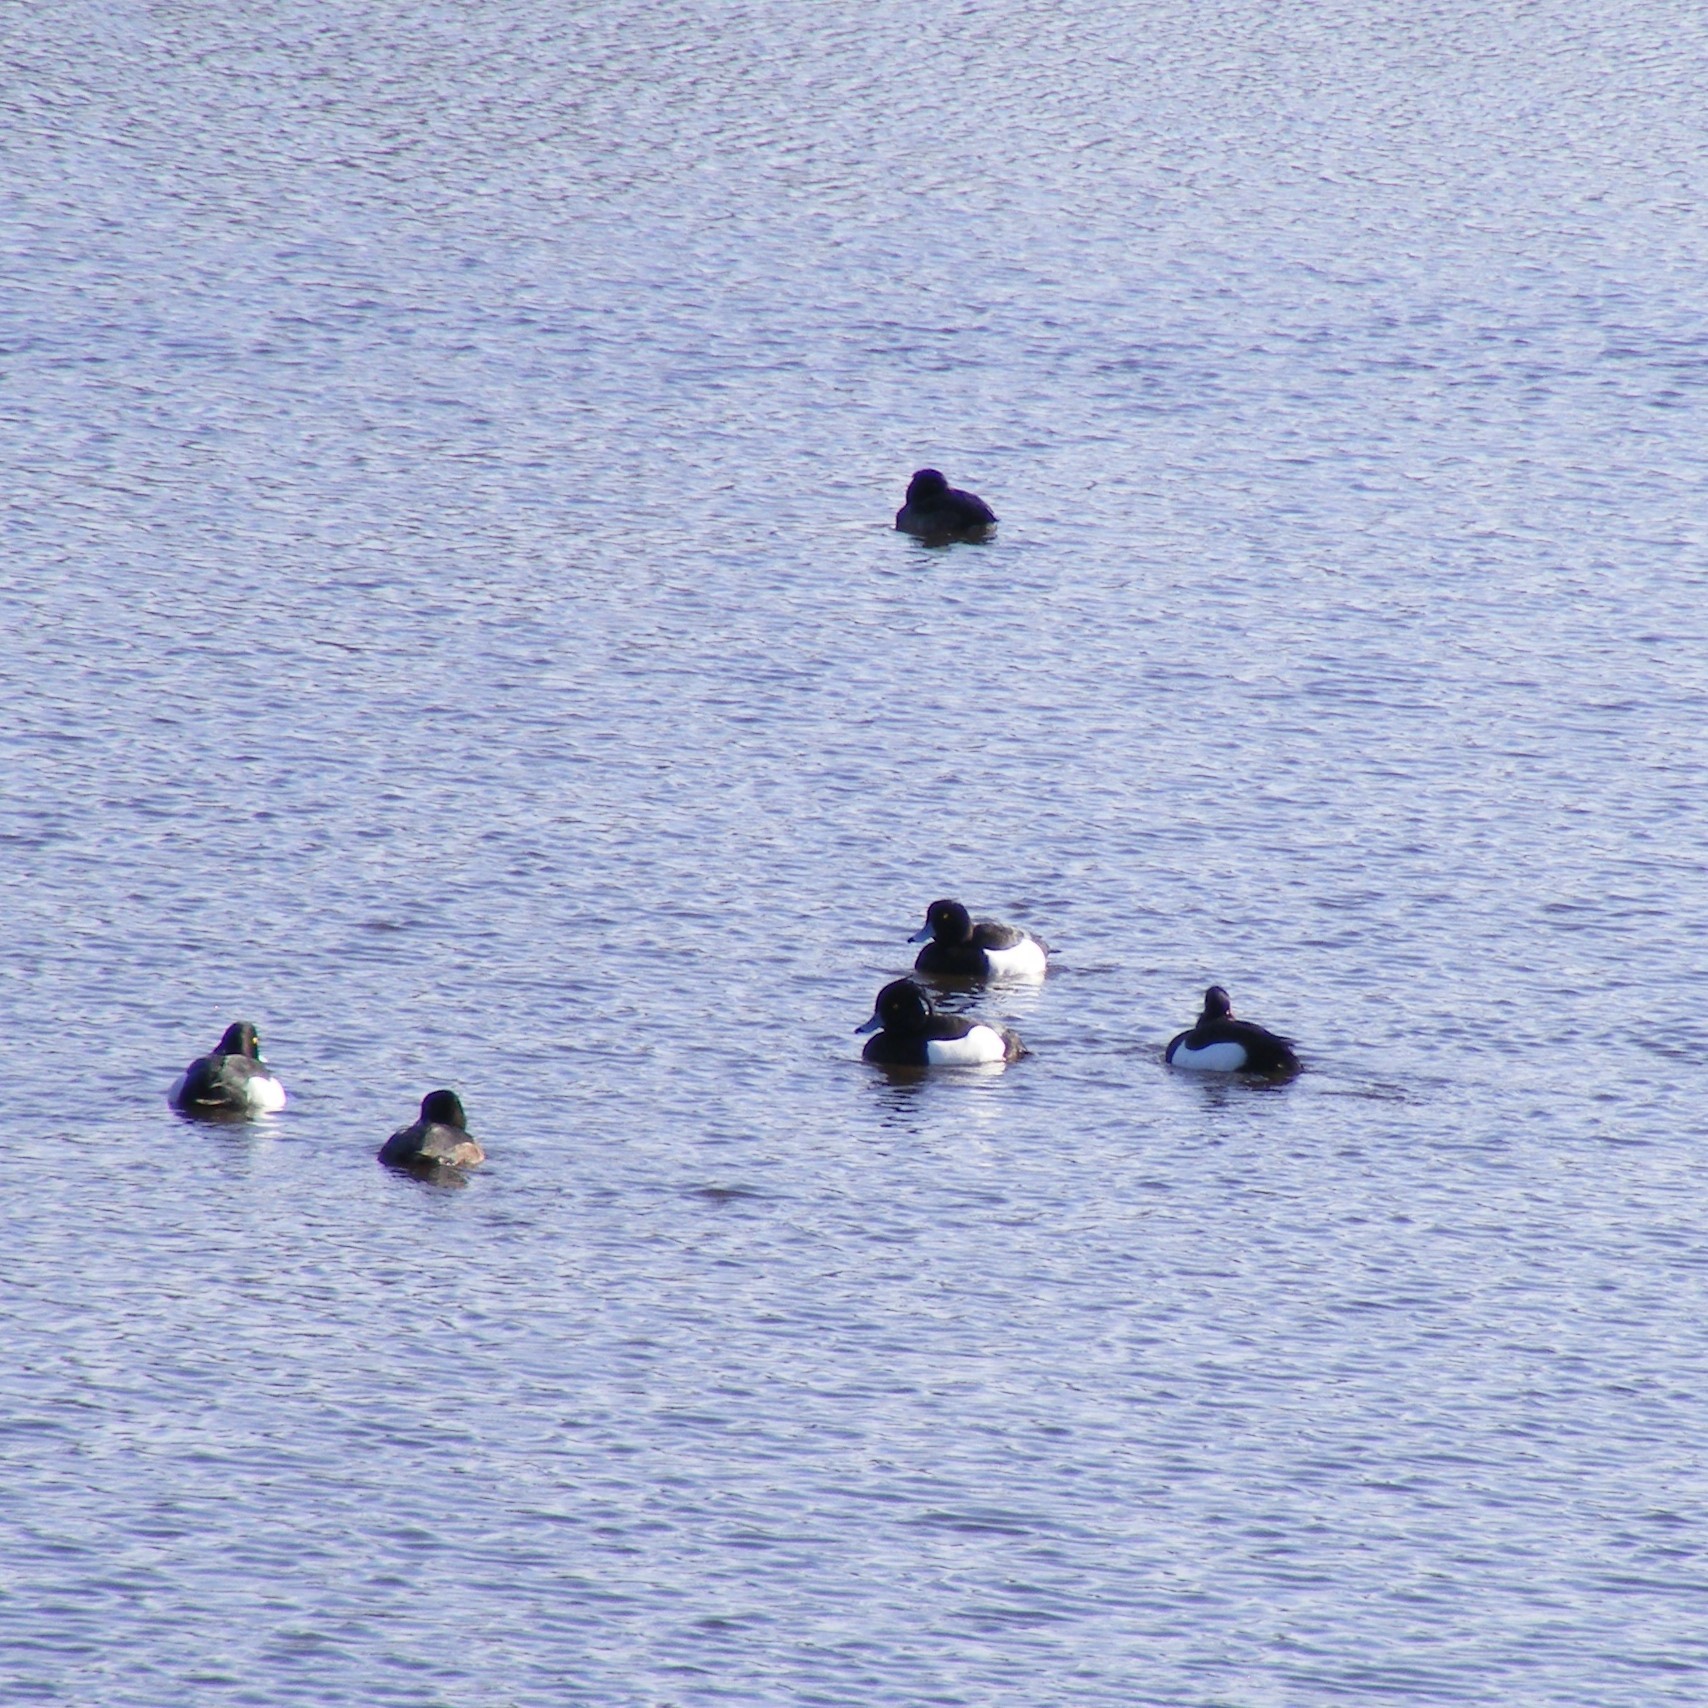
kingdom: Animalia
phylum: Chordata
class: Aves
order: Anseriformes
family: Anatidae
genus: Aythya
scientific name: Aythya fuligula
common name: Tufted duck
